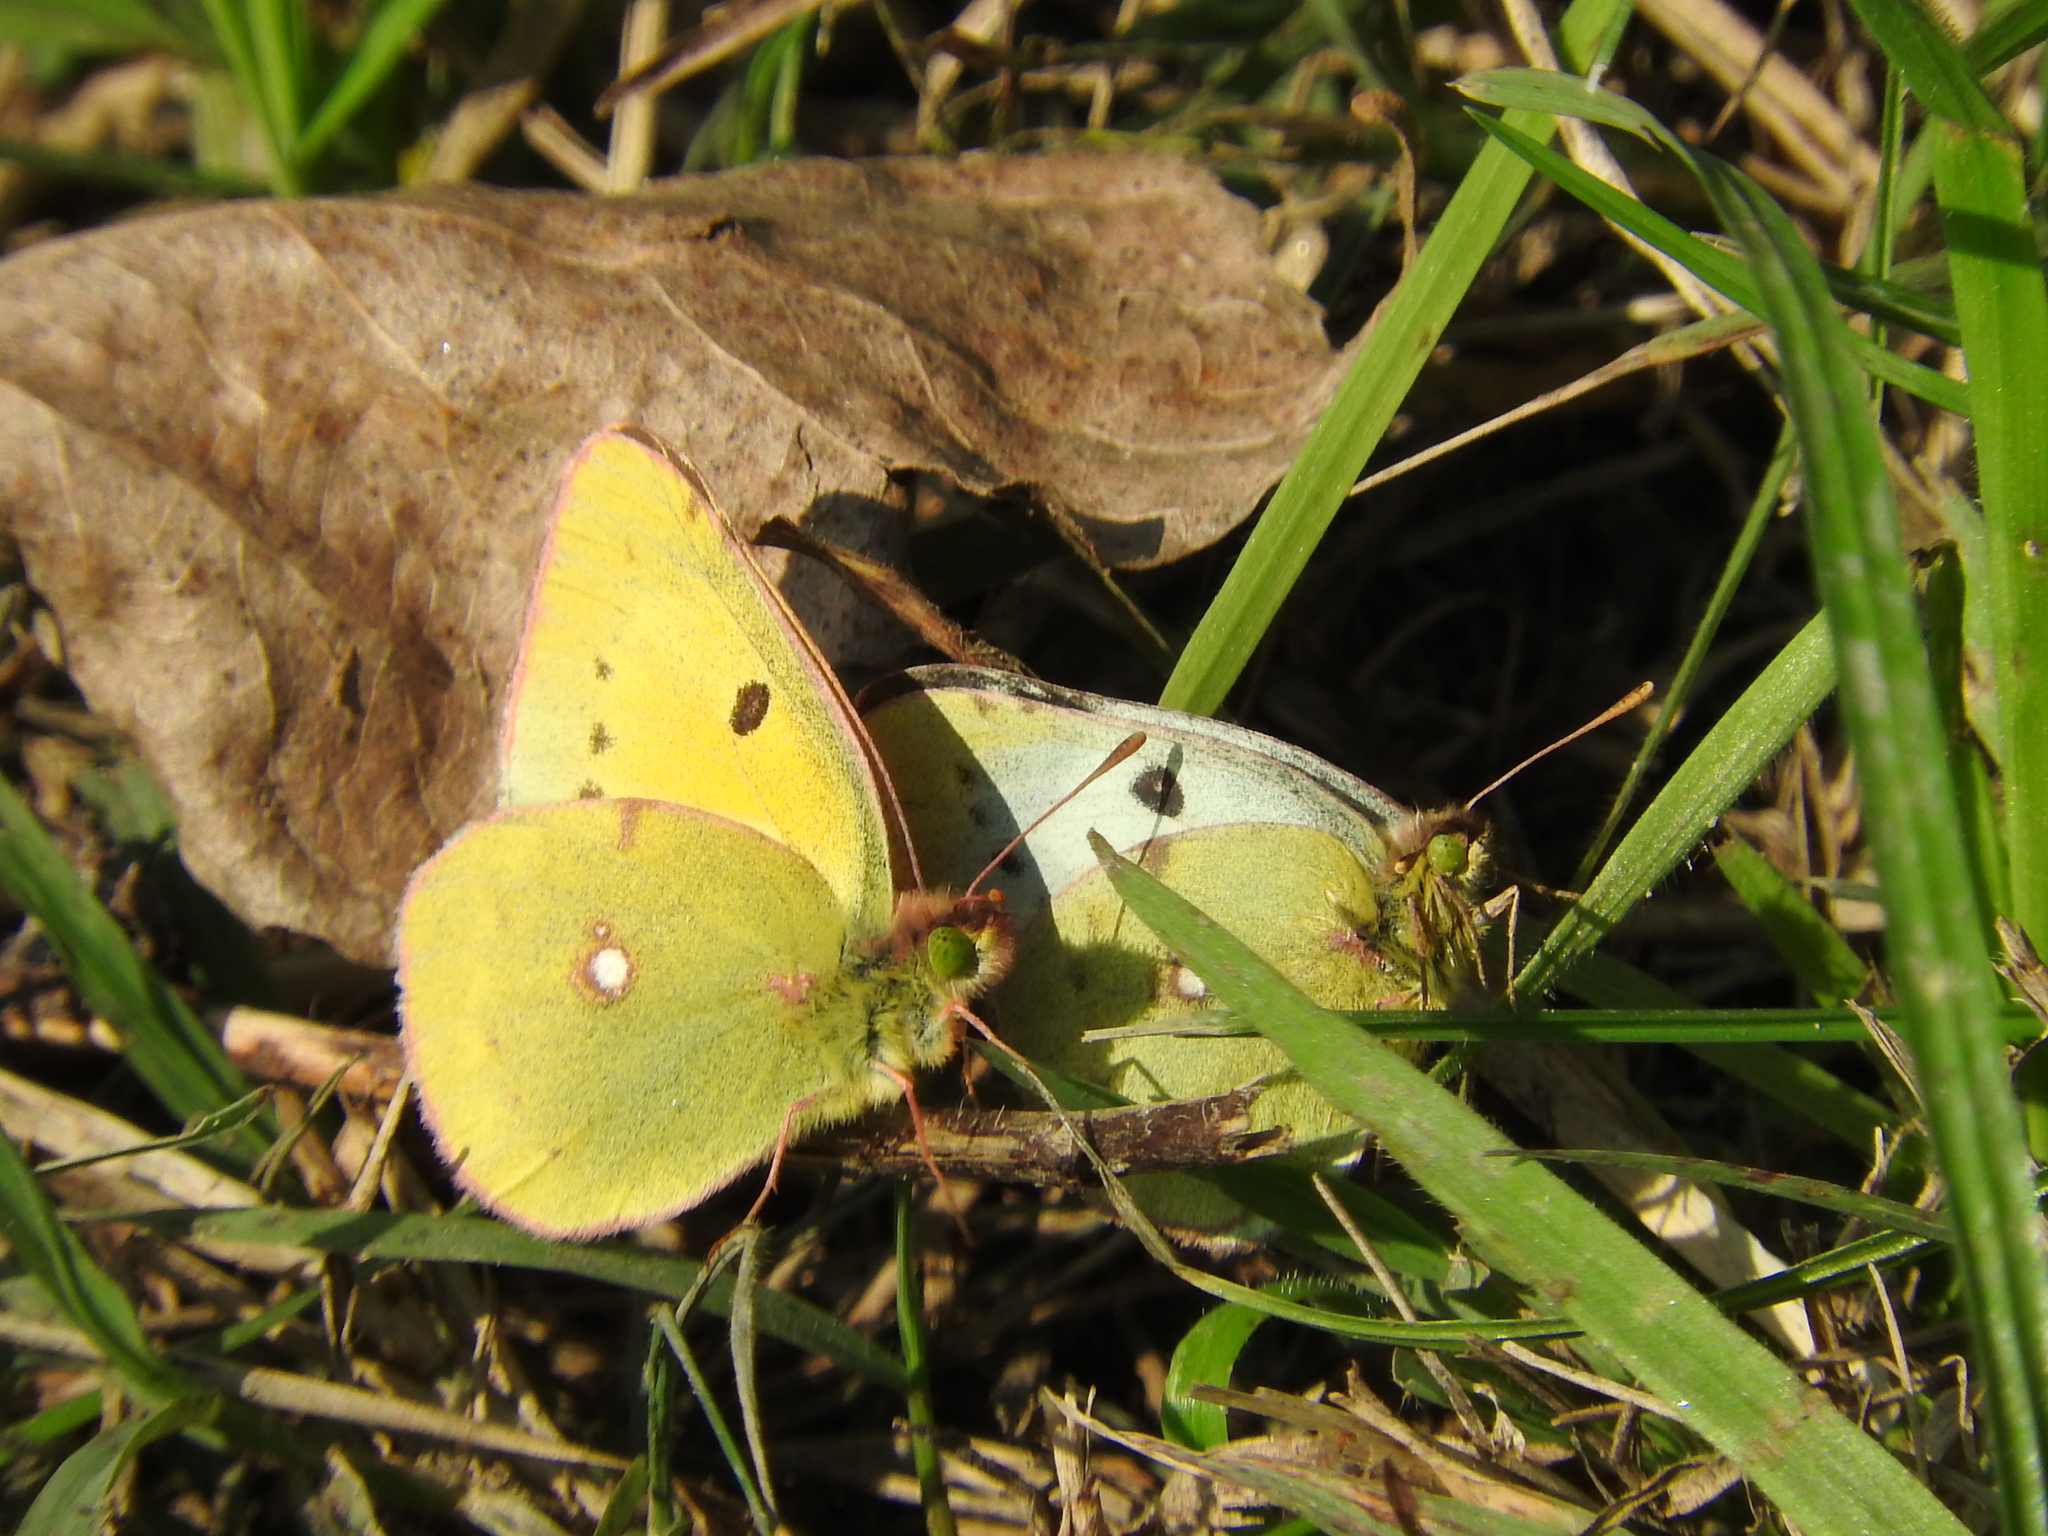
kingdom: Animalia
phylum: Arthropoda
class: Insecta
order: Lepidoptera
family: Pieridae
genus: Colias
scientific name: Colias croceus
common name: Clouded yellow
